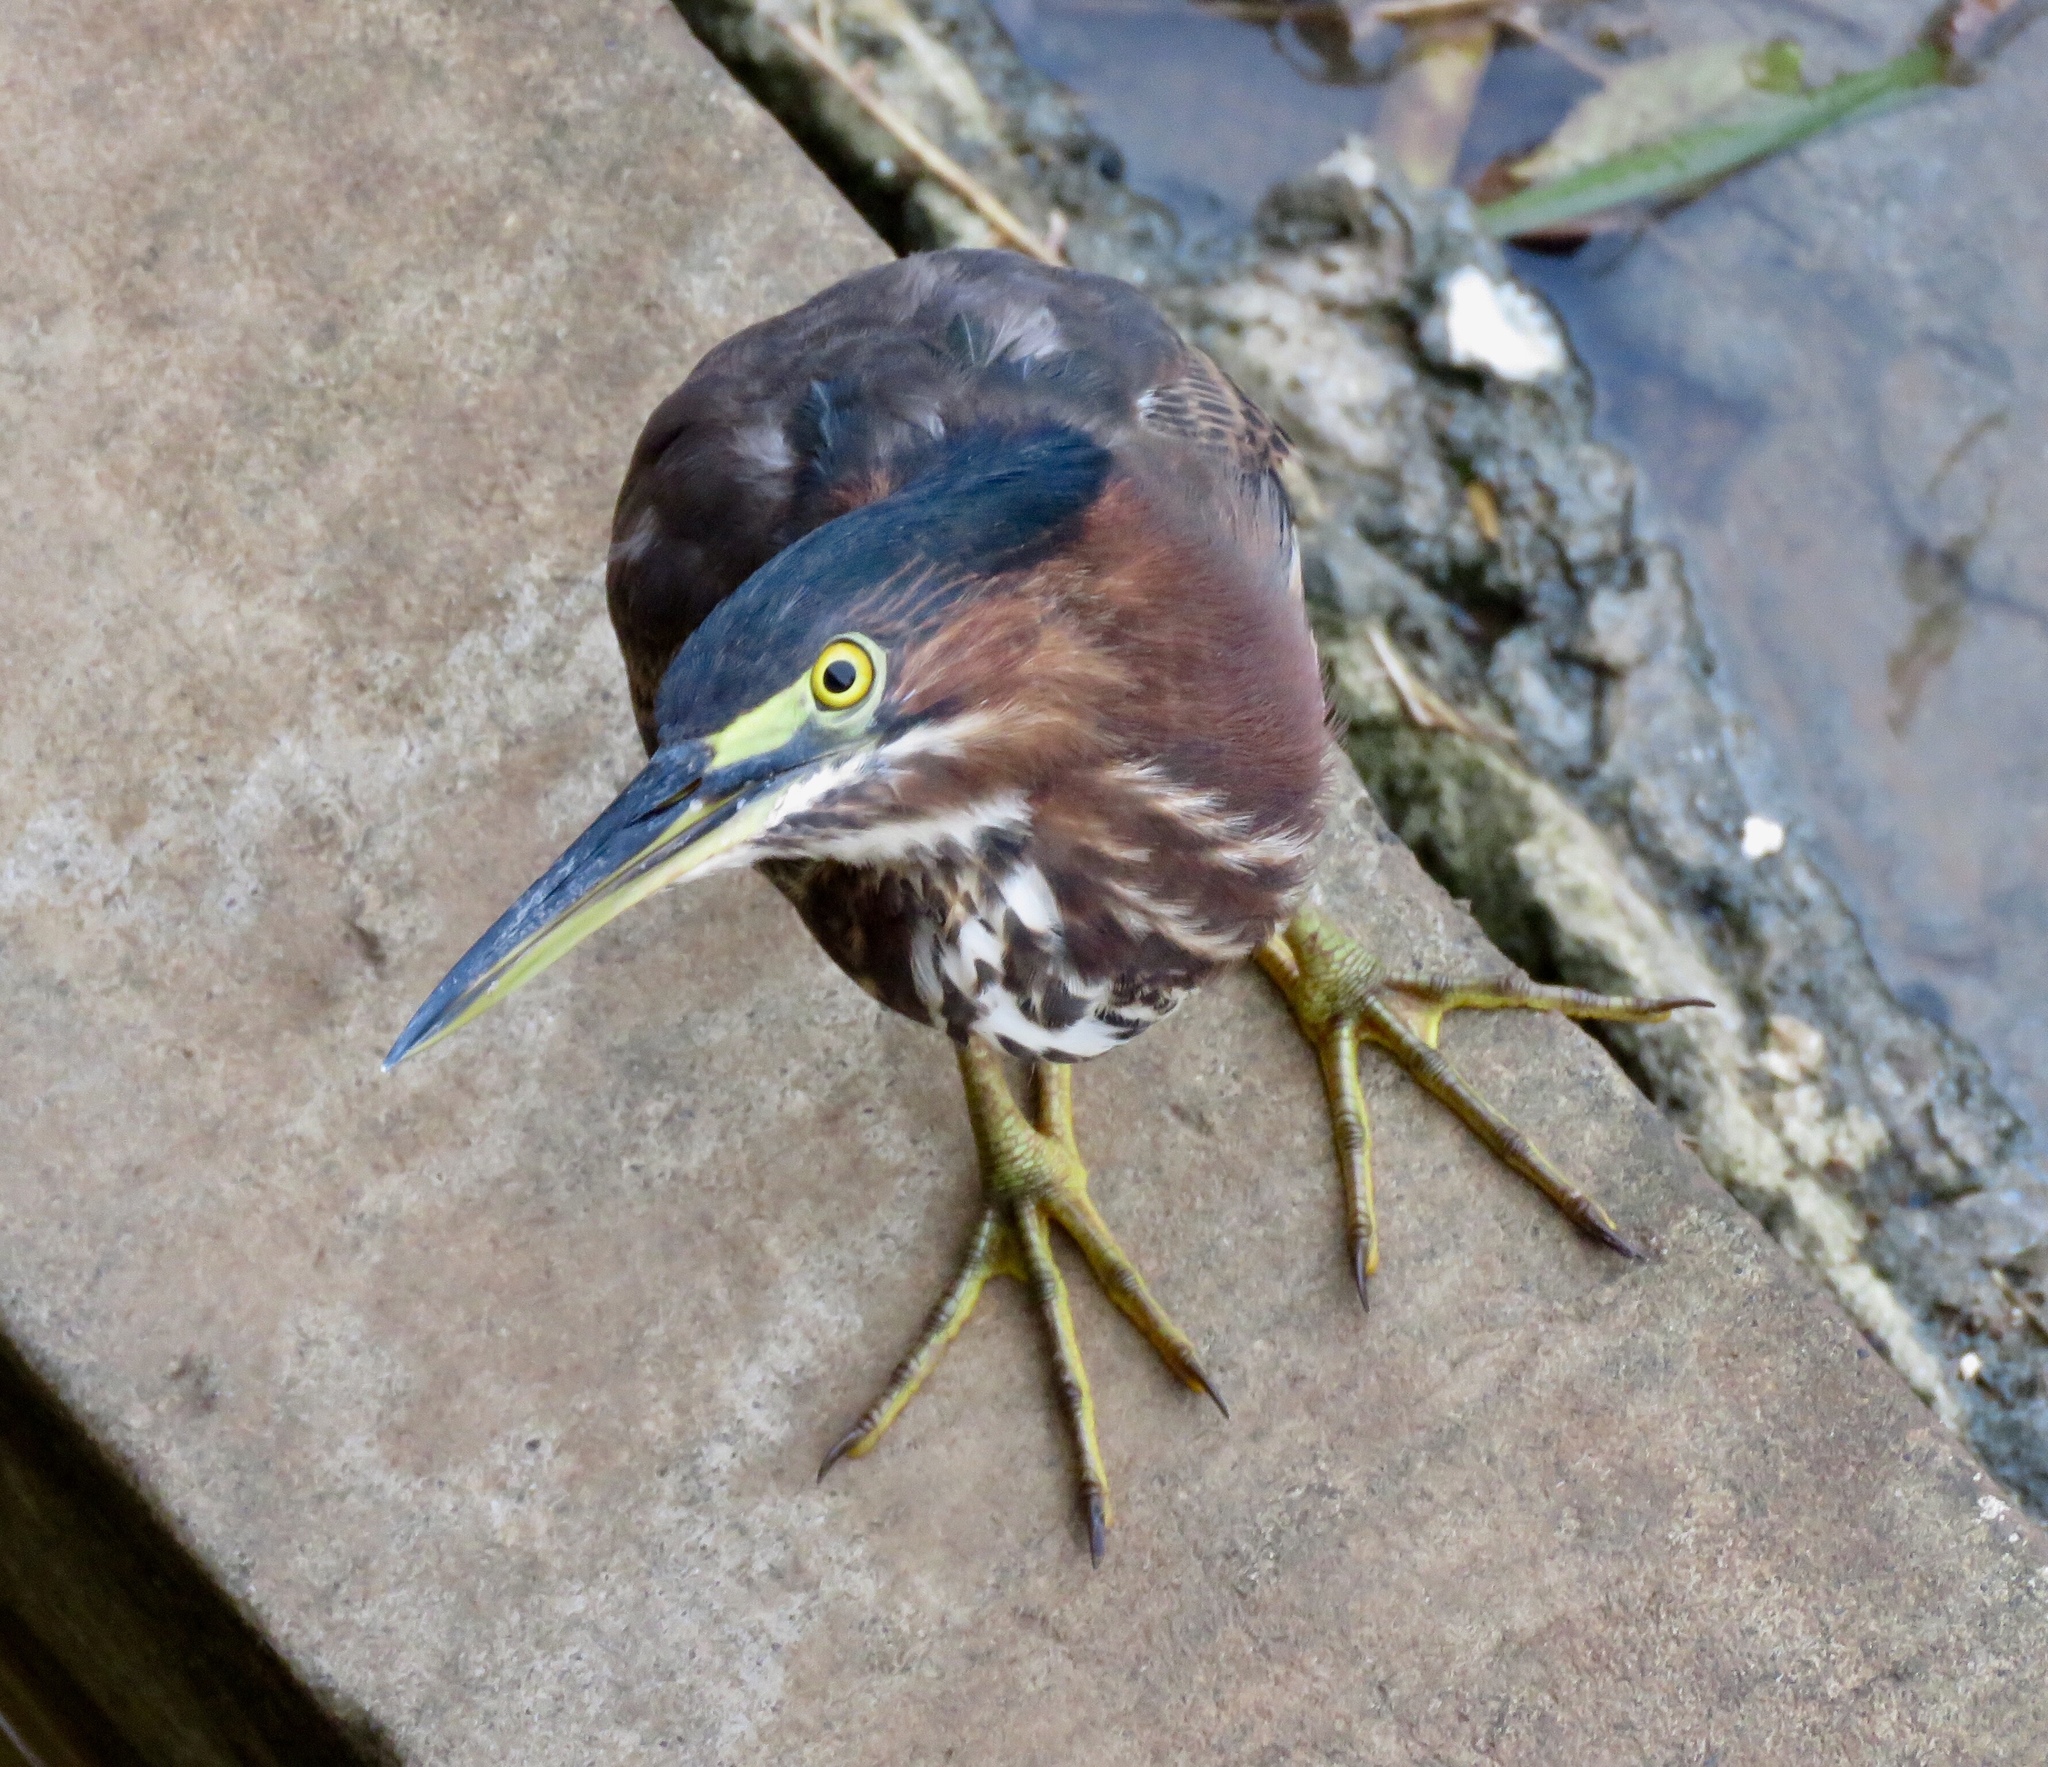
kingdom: Animalia
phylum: Chordata
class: Aves
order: Pelecaniformes
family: Ardeidae
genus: Butorides
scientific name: Butorides virescens
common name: Green heron
